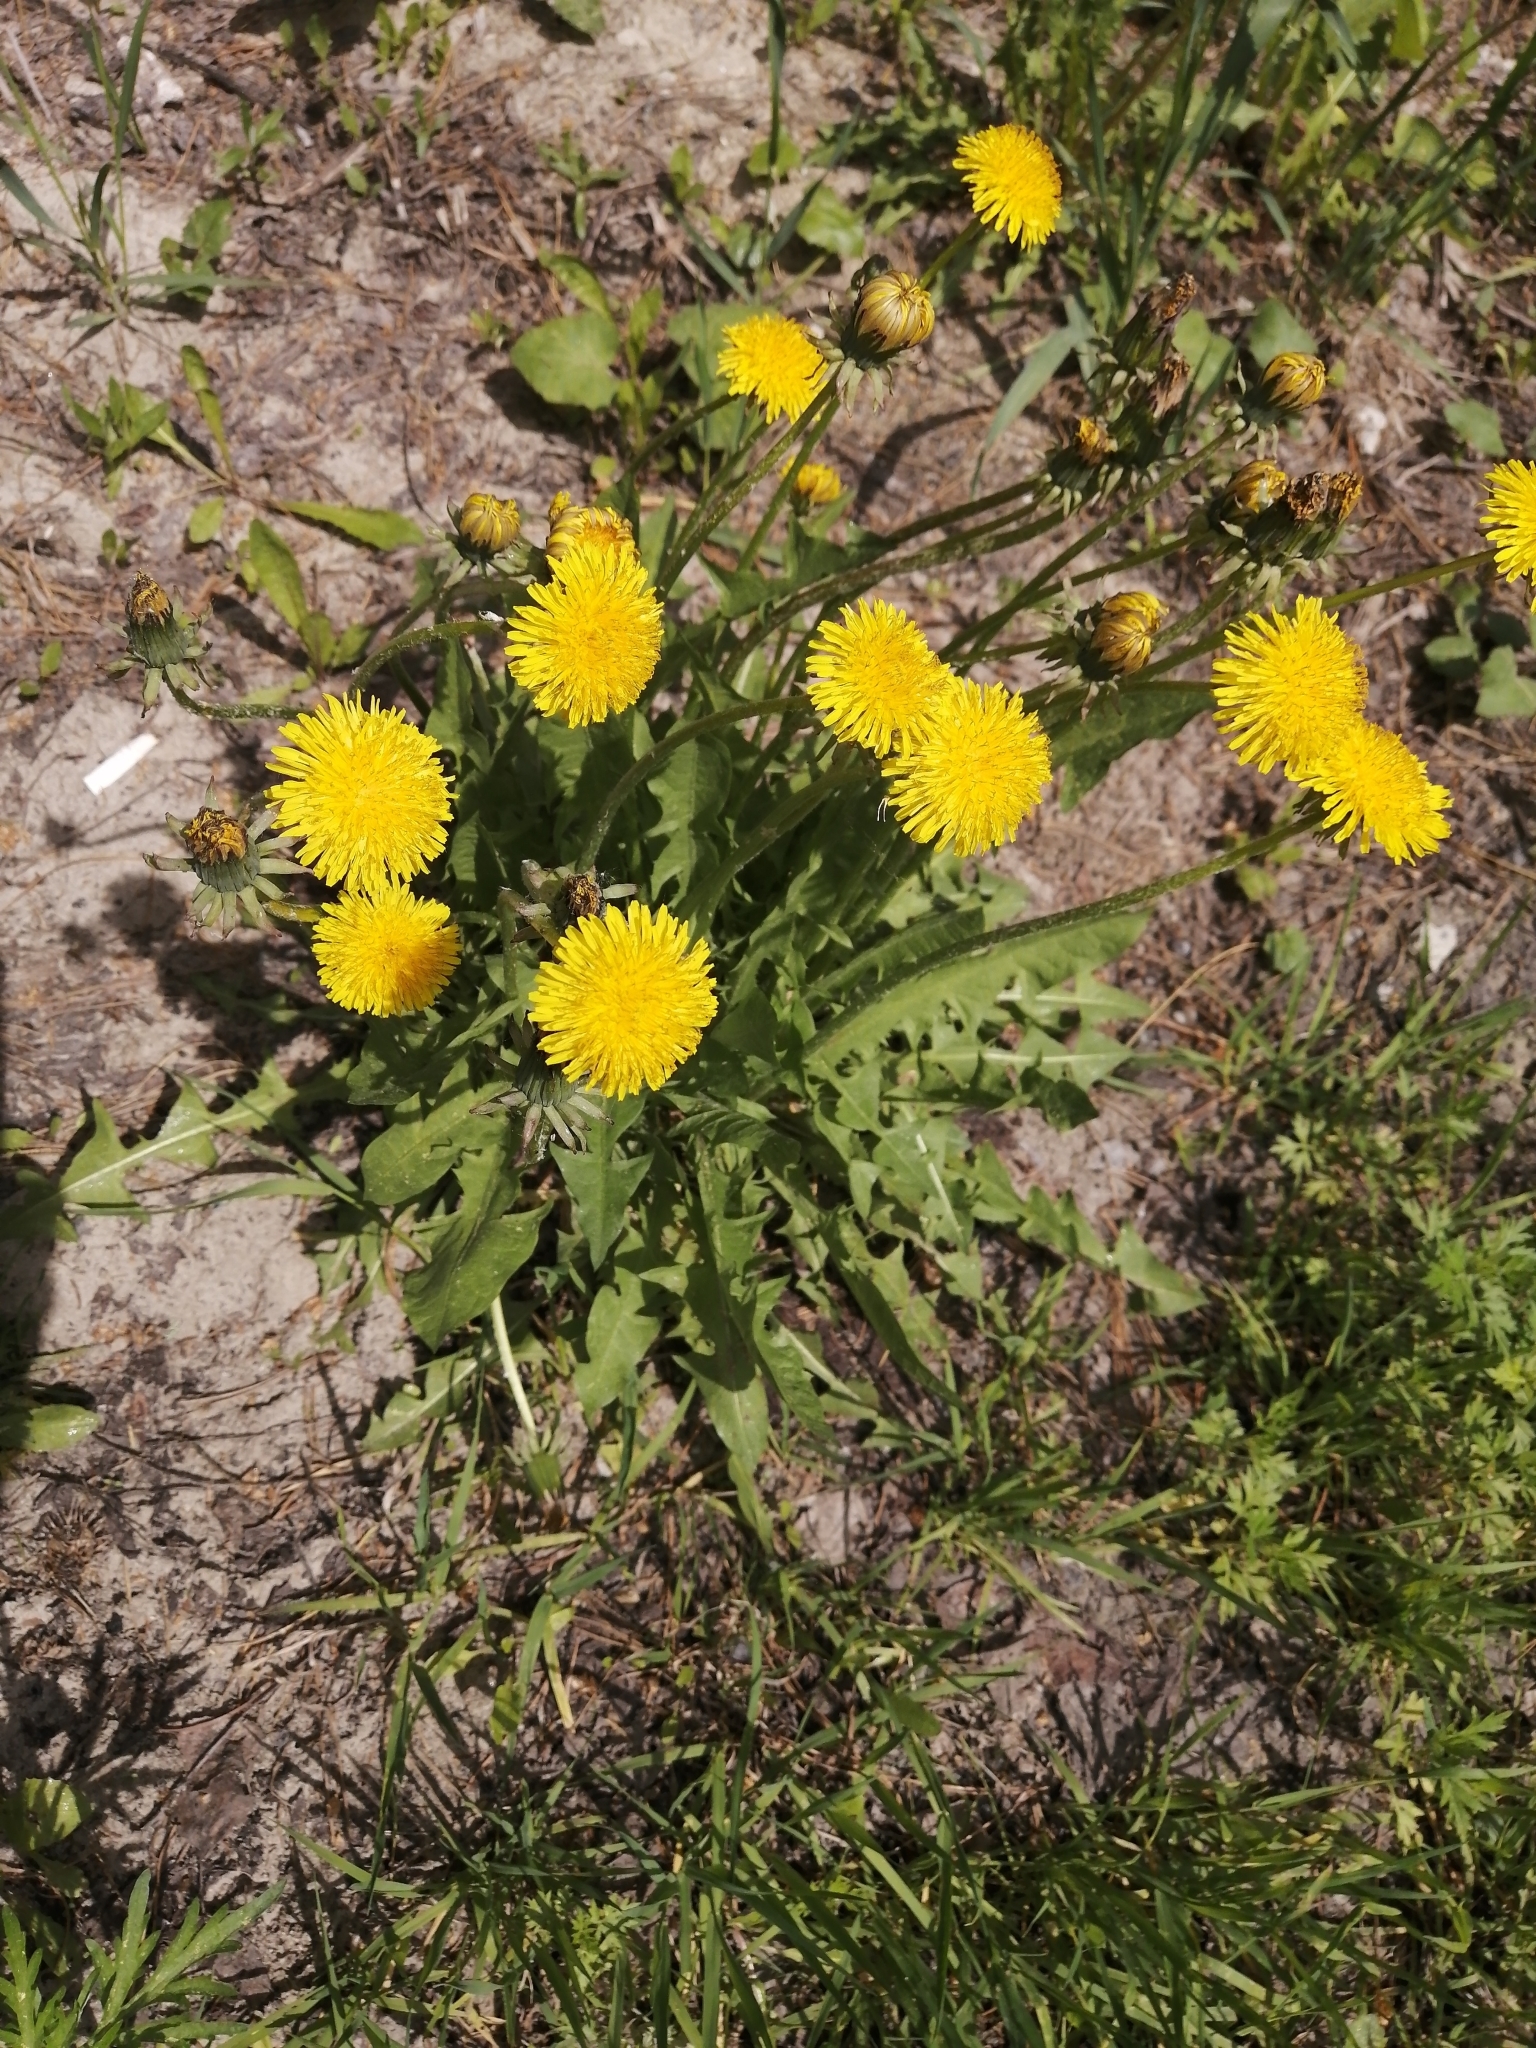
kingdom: Plantae
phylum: Tracheophyta
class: Magnoliopsida
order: Asterales
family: Asteraceae
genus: Taraxacum
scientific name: Taraxacum officinale
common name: Common dandelion
